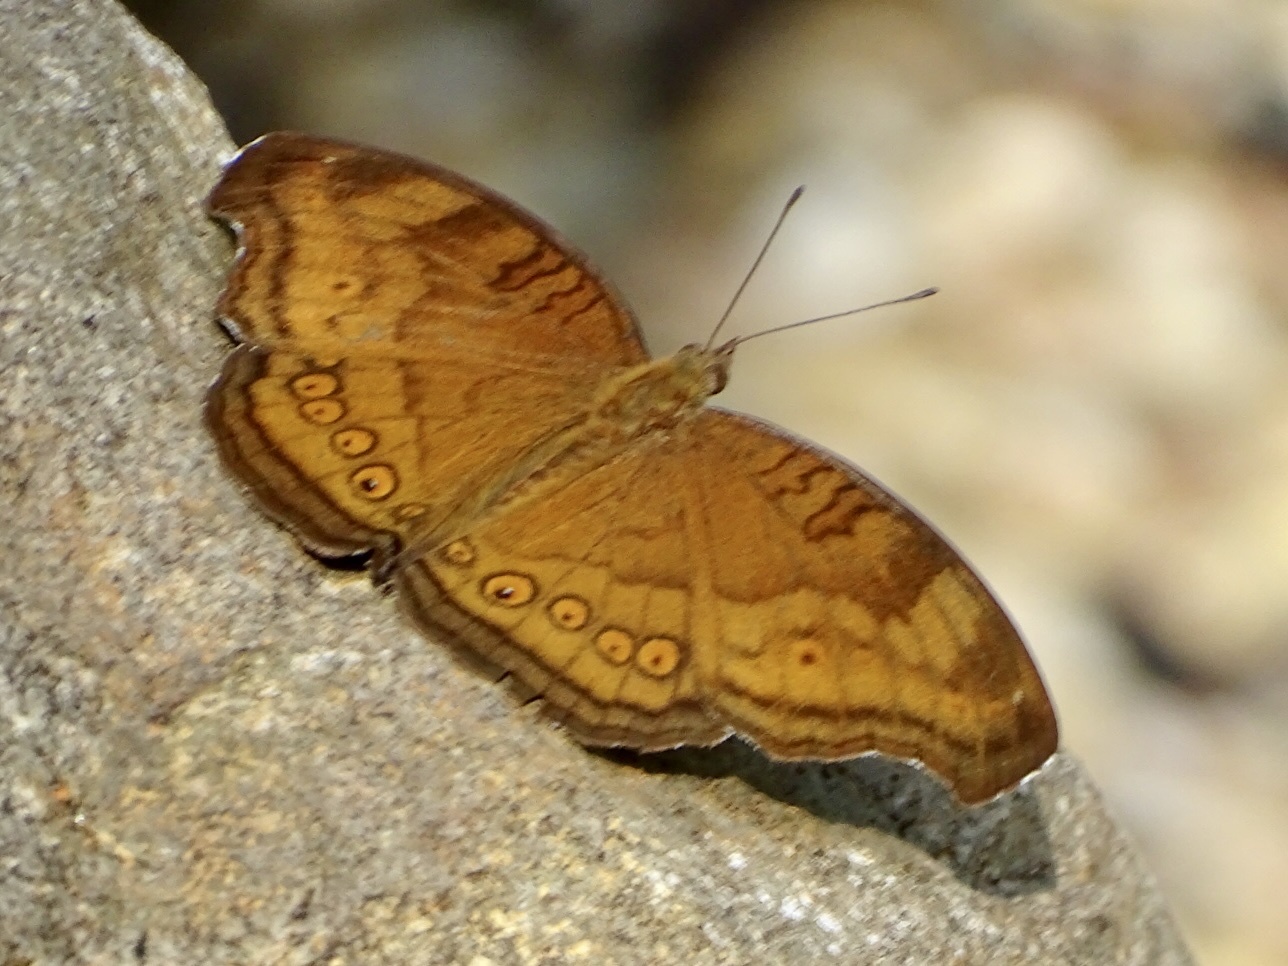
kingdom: Animalia
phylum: Arthropoda
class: Insecta
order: Lepidoptera
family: Nymphalidae
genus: Junonia
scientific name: Junonia hedonia
